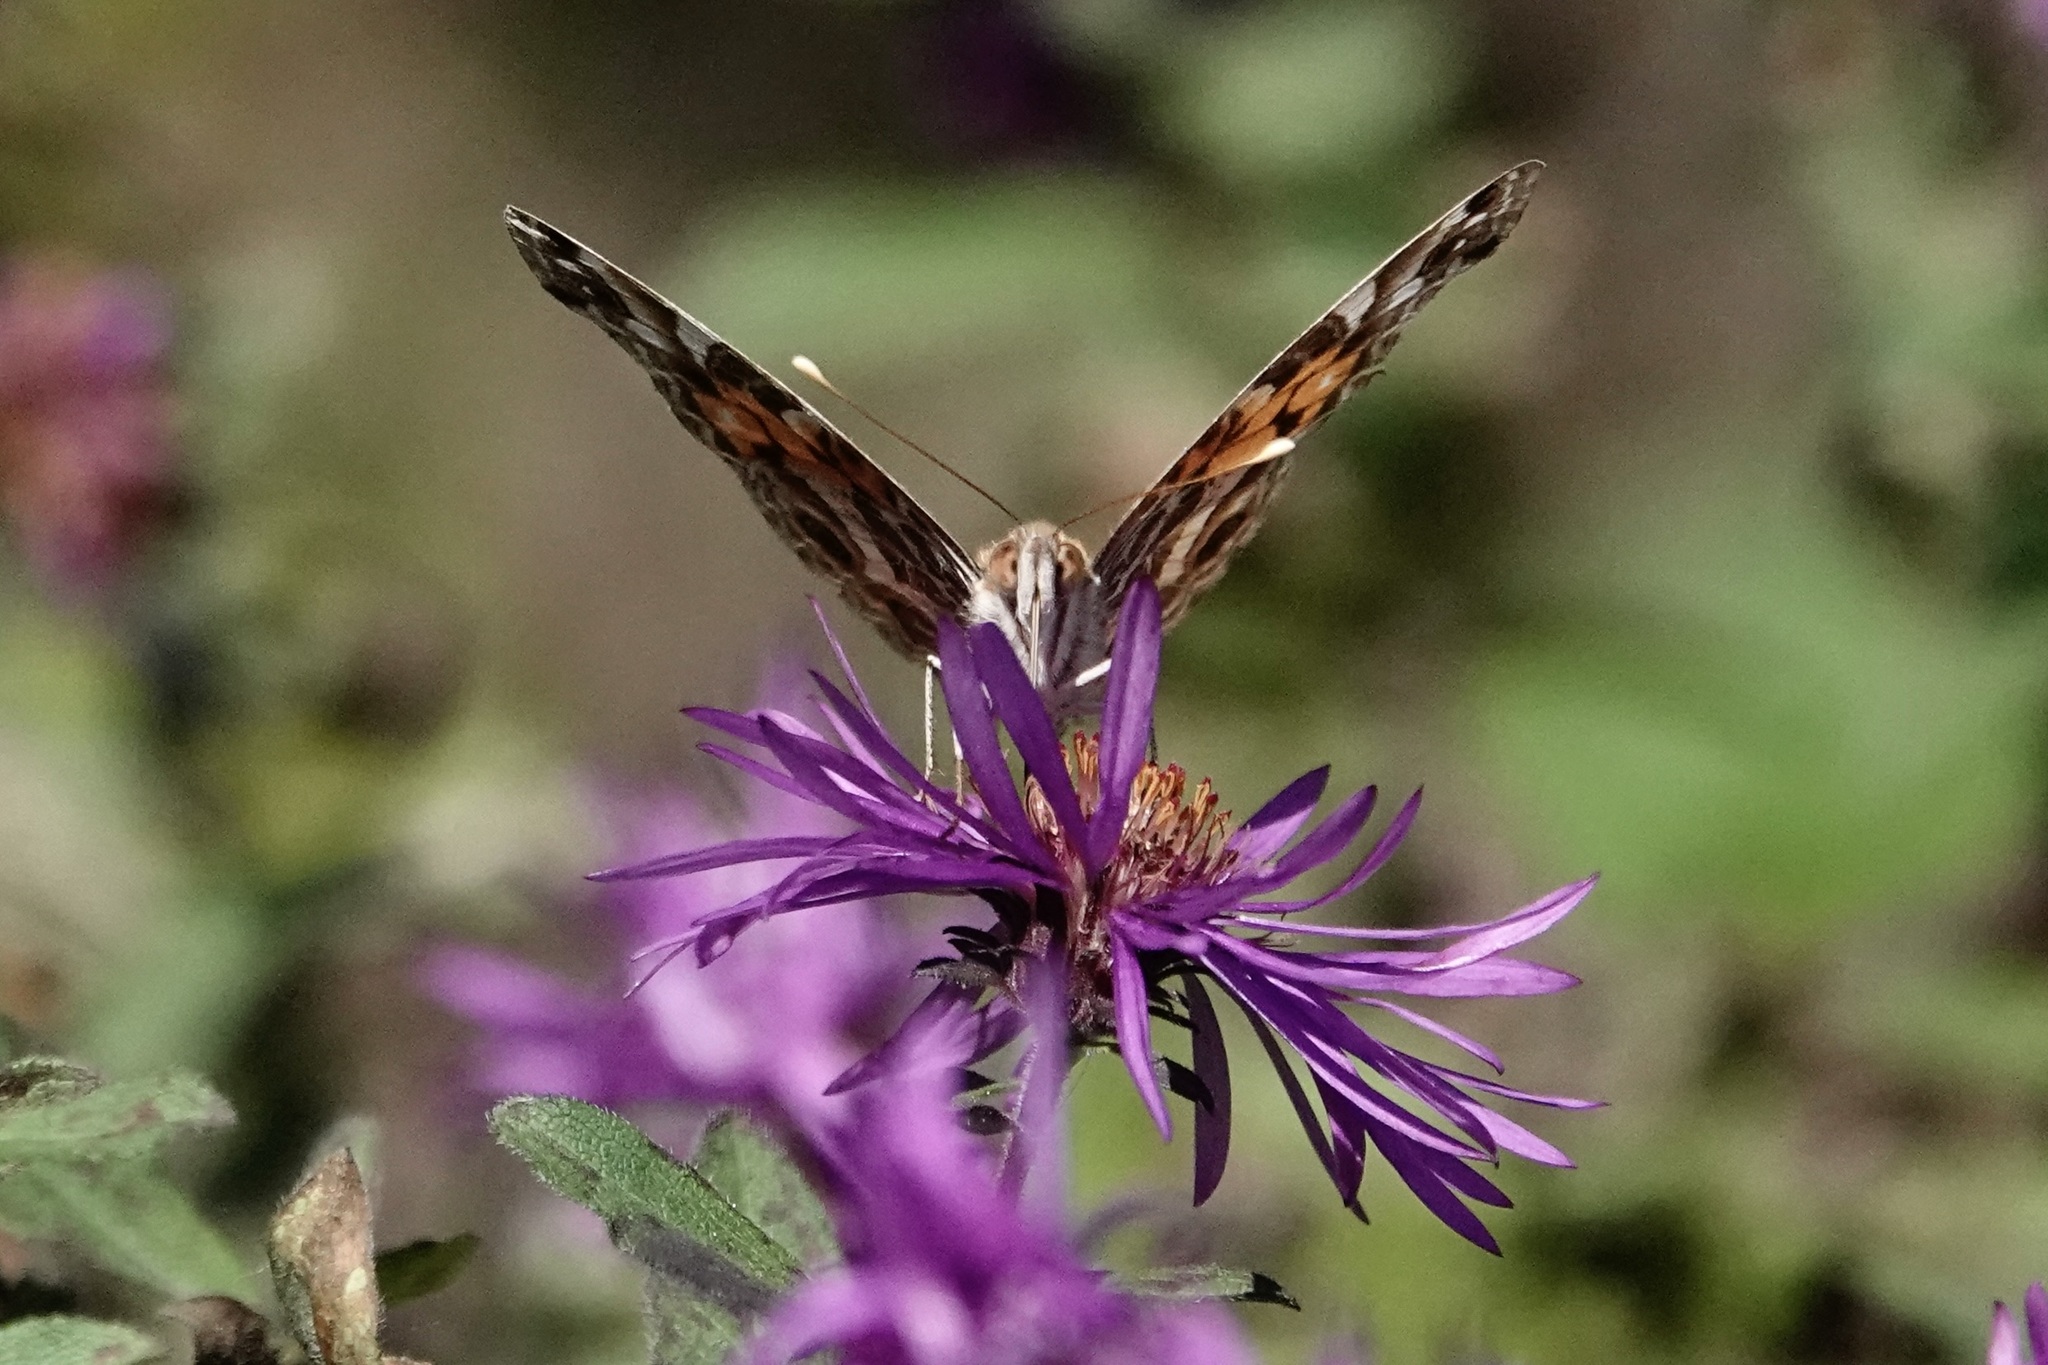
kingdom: Animalia
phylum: Arthropoda
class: Insecta
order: Lepidoptera
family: Nymphalidae
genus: Vanessa
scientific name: Vanessa virginiensis
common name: American lady
